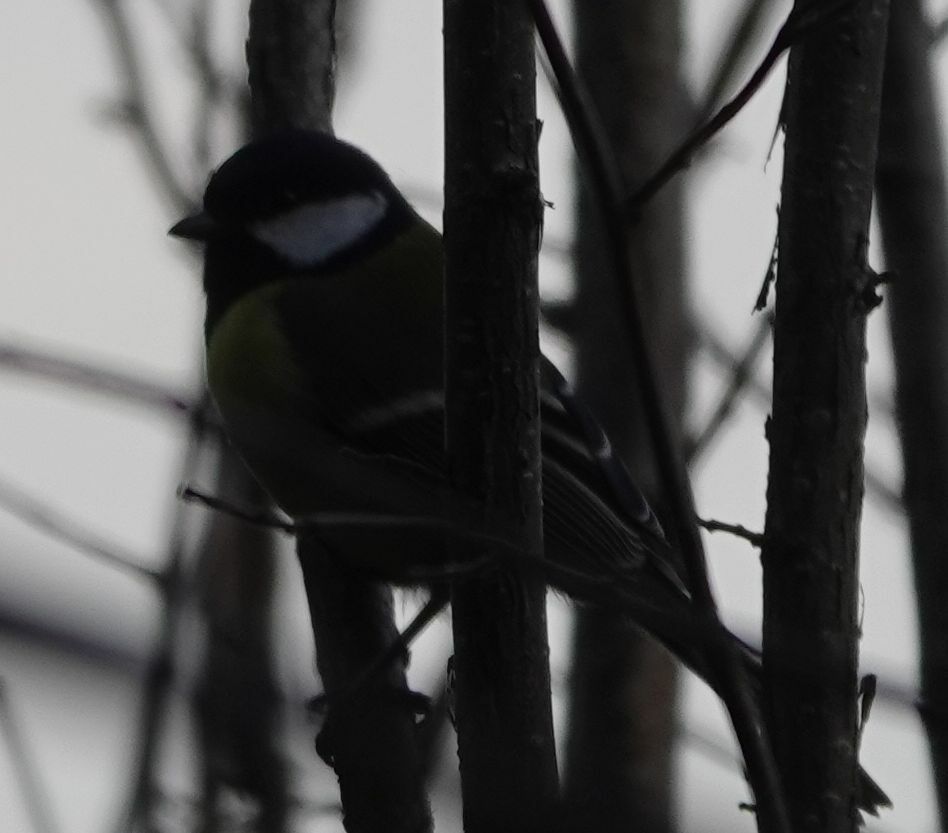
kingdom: Animalia
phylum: Chordata
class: Aves
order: Passeriformes
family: Paridae
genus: Parus
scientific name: Parus major
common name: Great tit
